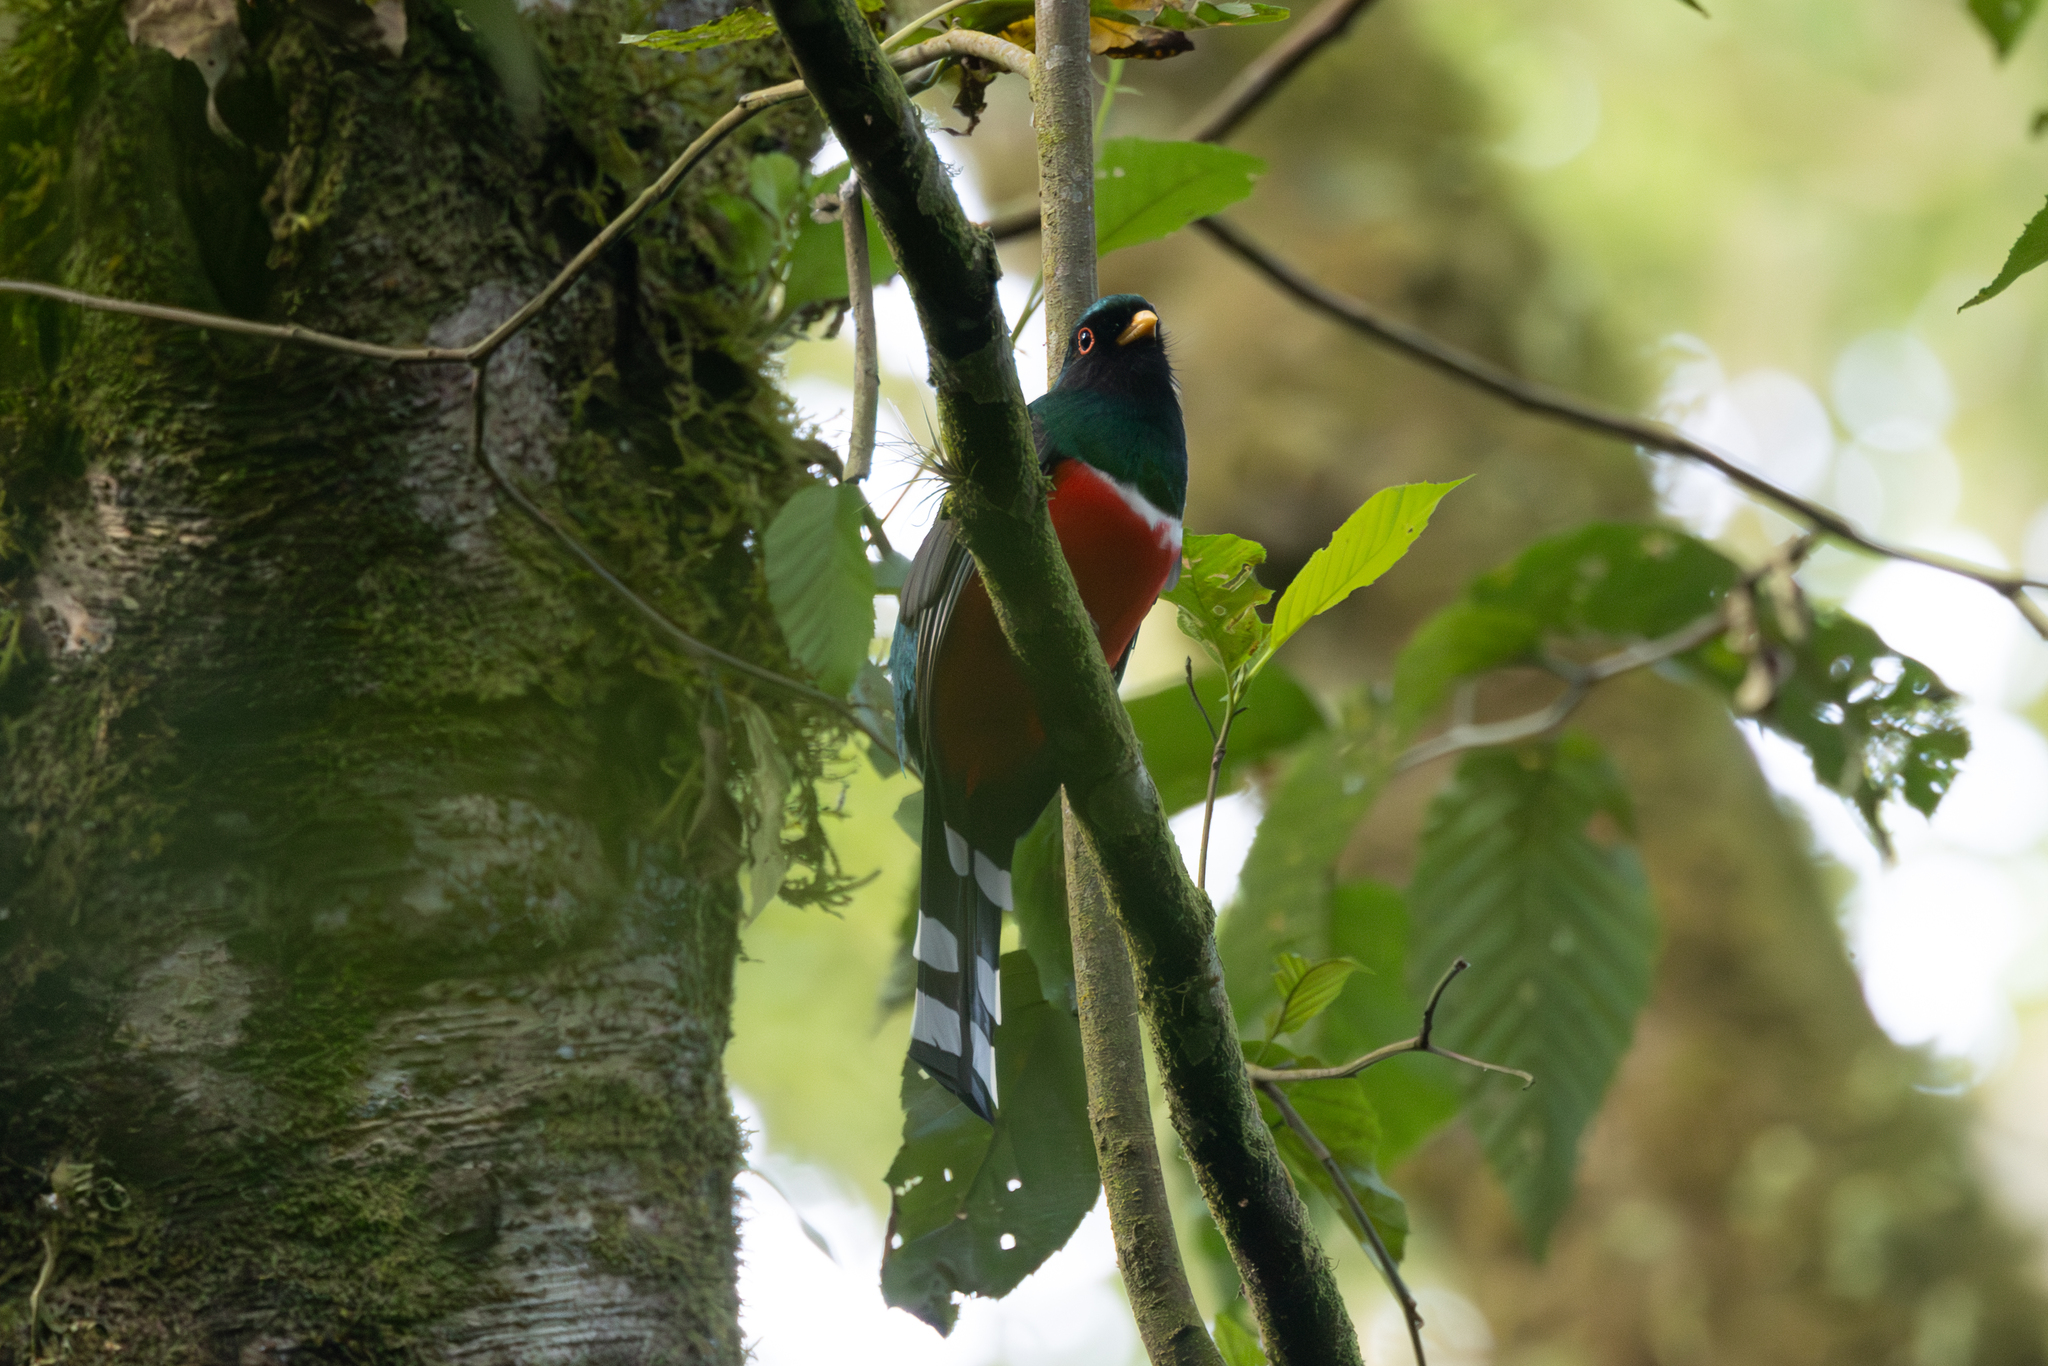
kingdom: Animalia
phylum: Chordata
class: Aves
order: Trogoniformes
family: Trogonidae
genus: Trogon
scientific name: Trogon mexicanus
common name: Mountain trogon
